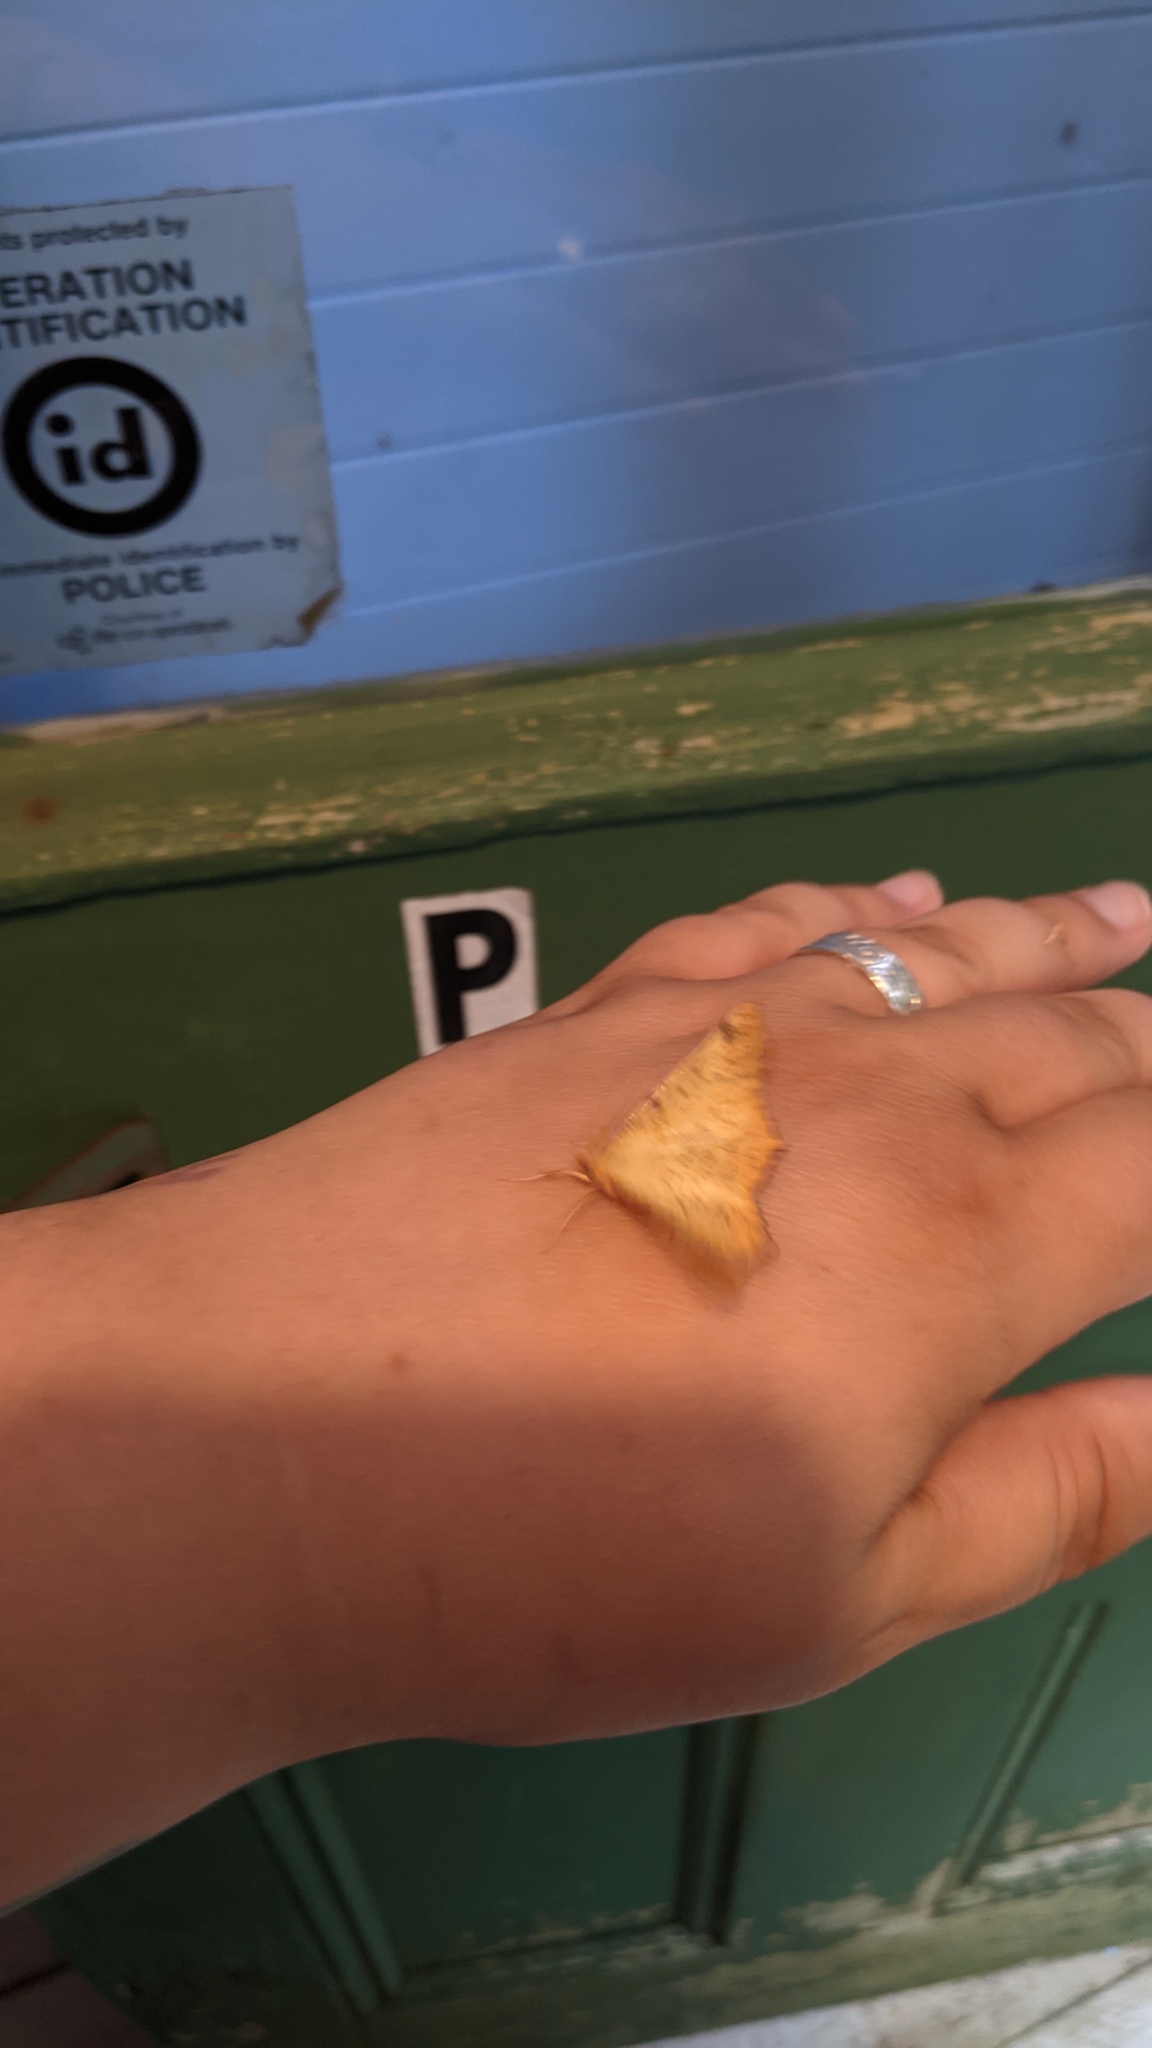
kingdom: Animalia
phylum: Arthropoda
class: Insecta
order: Lepidoptera
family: Geometridae
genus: Ennomos
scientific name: Ennomos magnaria
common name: Maple spanworm
